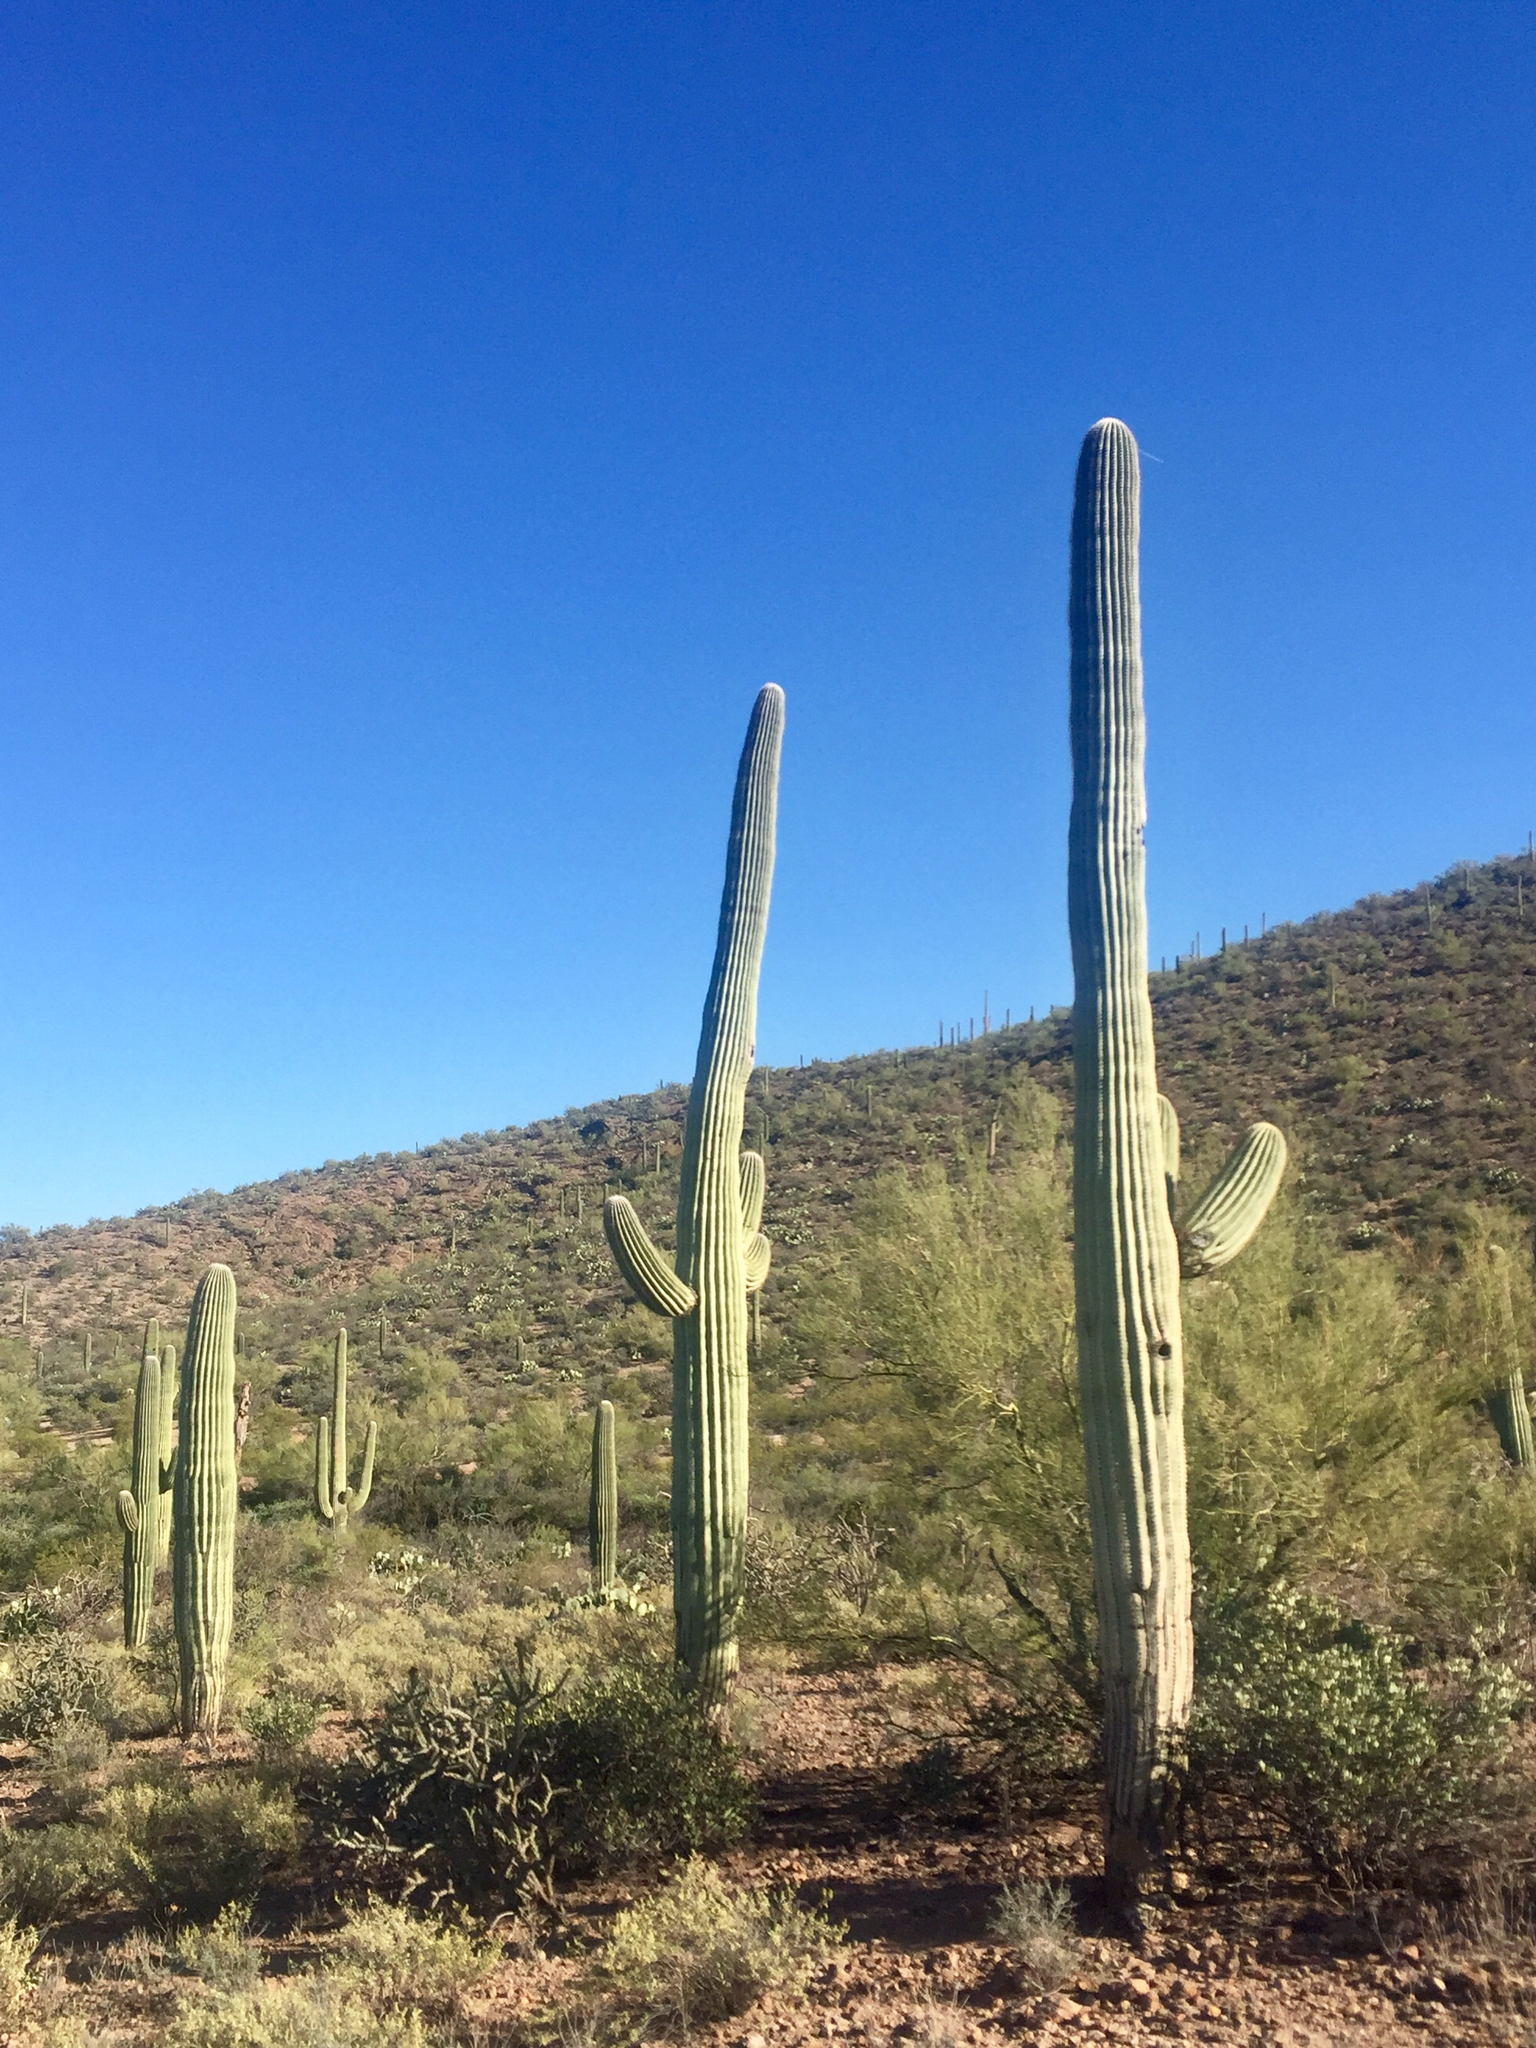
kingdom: Plantae
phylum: Tracheophyta
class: Magnoliopsida
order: Caryophyllales
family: Cactaceae
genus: Carnegiea
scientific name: Carnegiea gigantea
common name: Saguaro
